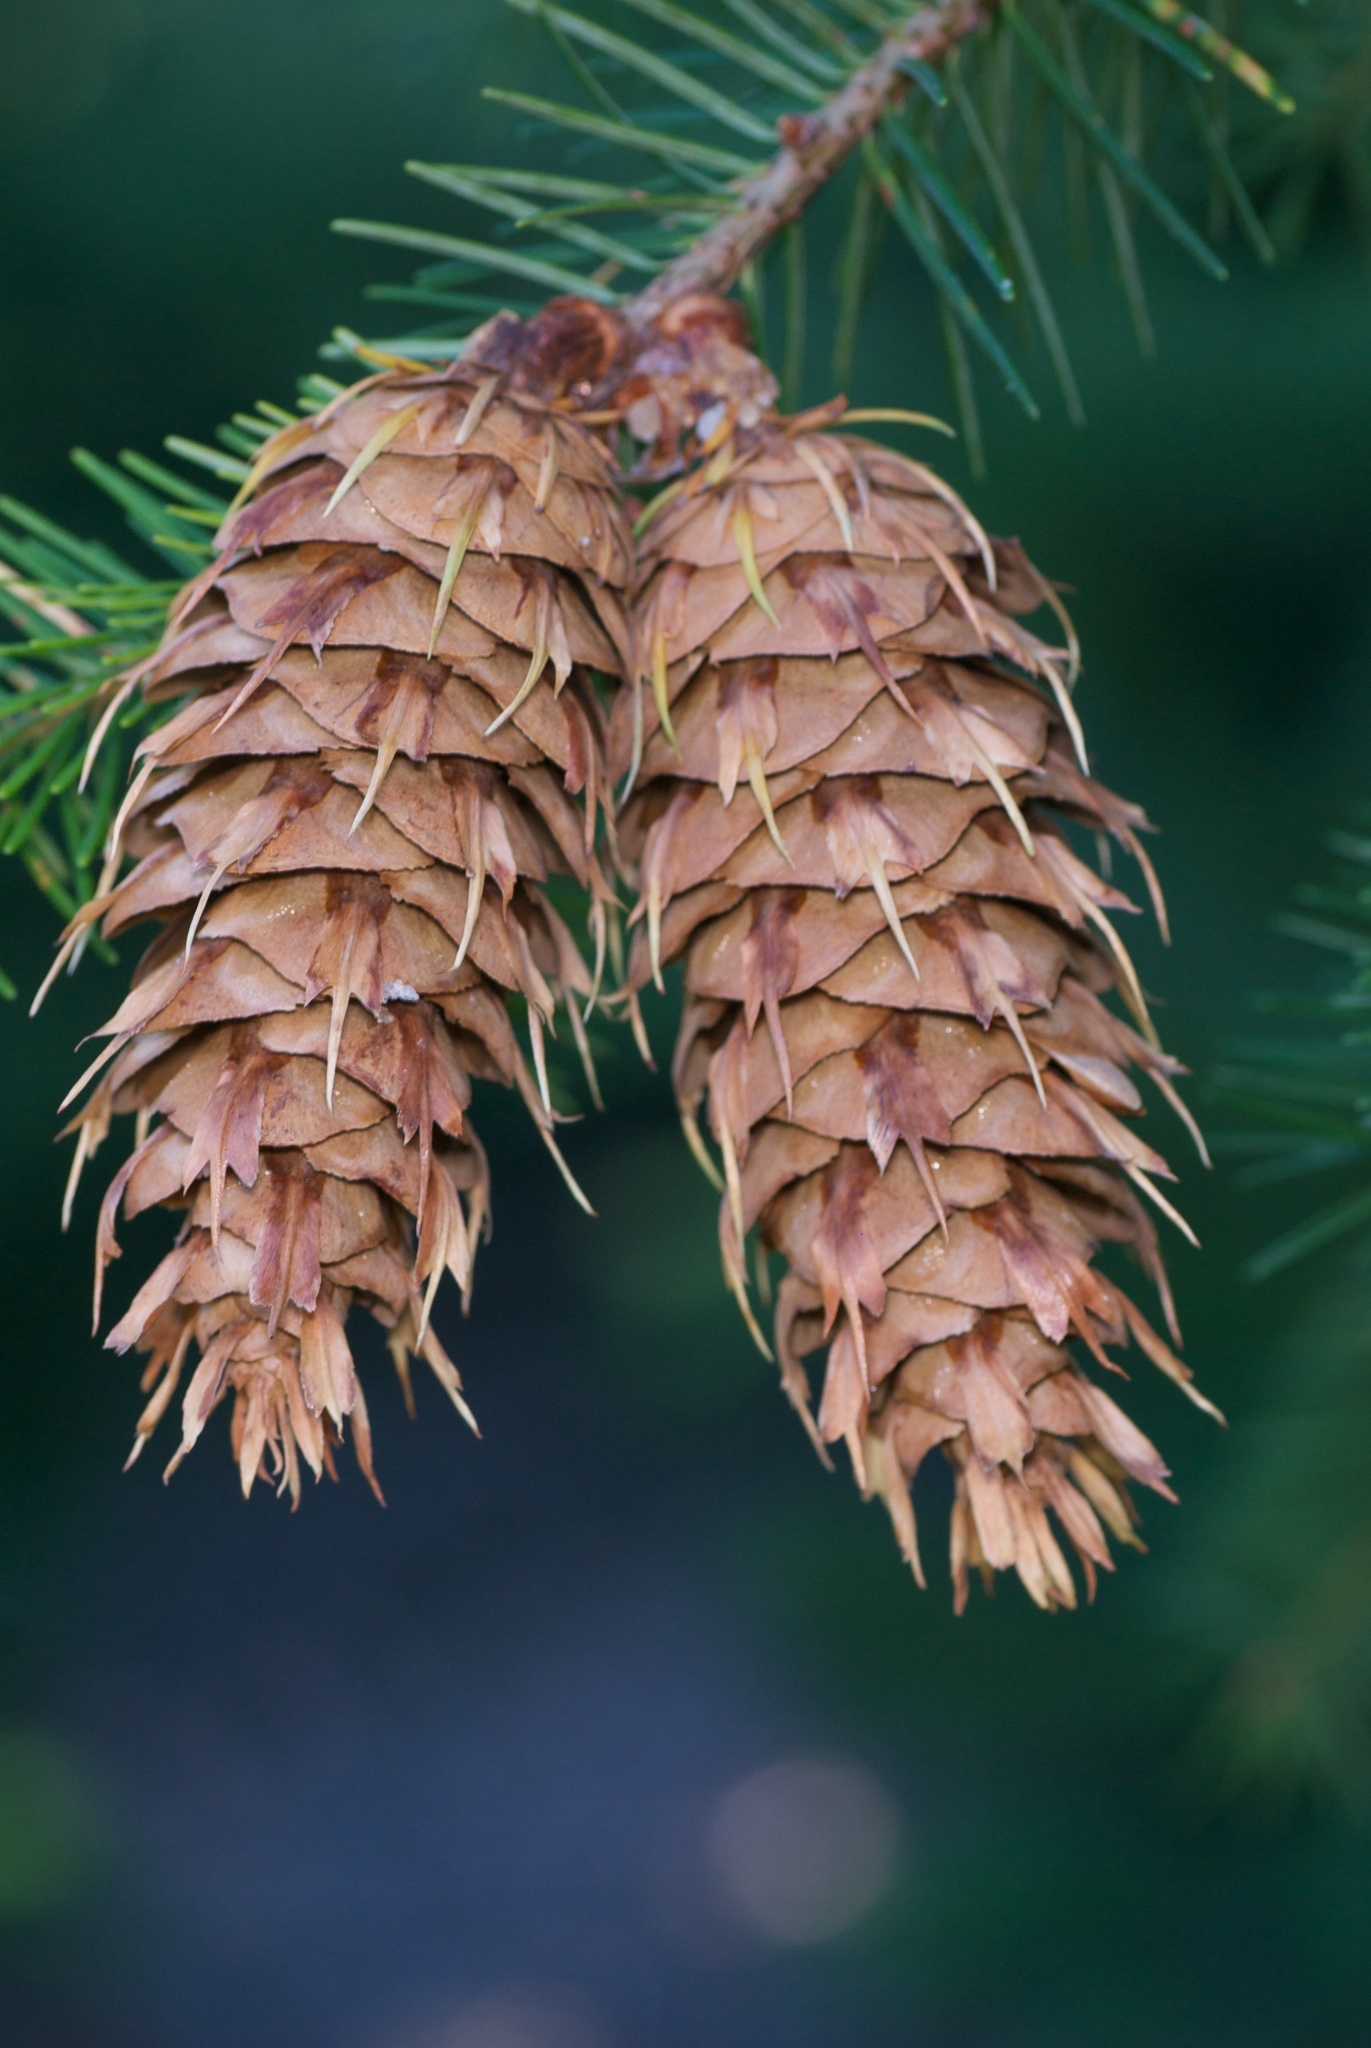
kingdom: Plantae
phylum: Tracheophyta
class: Pinopsida
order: Pinales
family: Pinaceae
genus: Pseudotsuga
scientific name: Pseudotsuga menziesii
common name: Douglas fir
